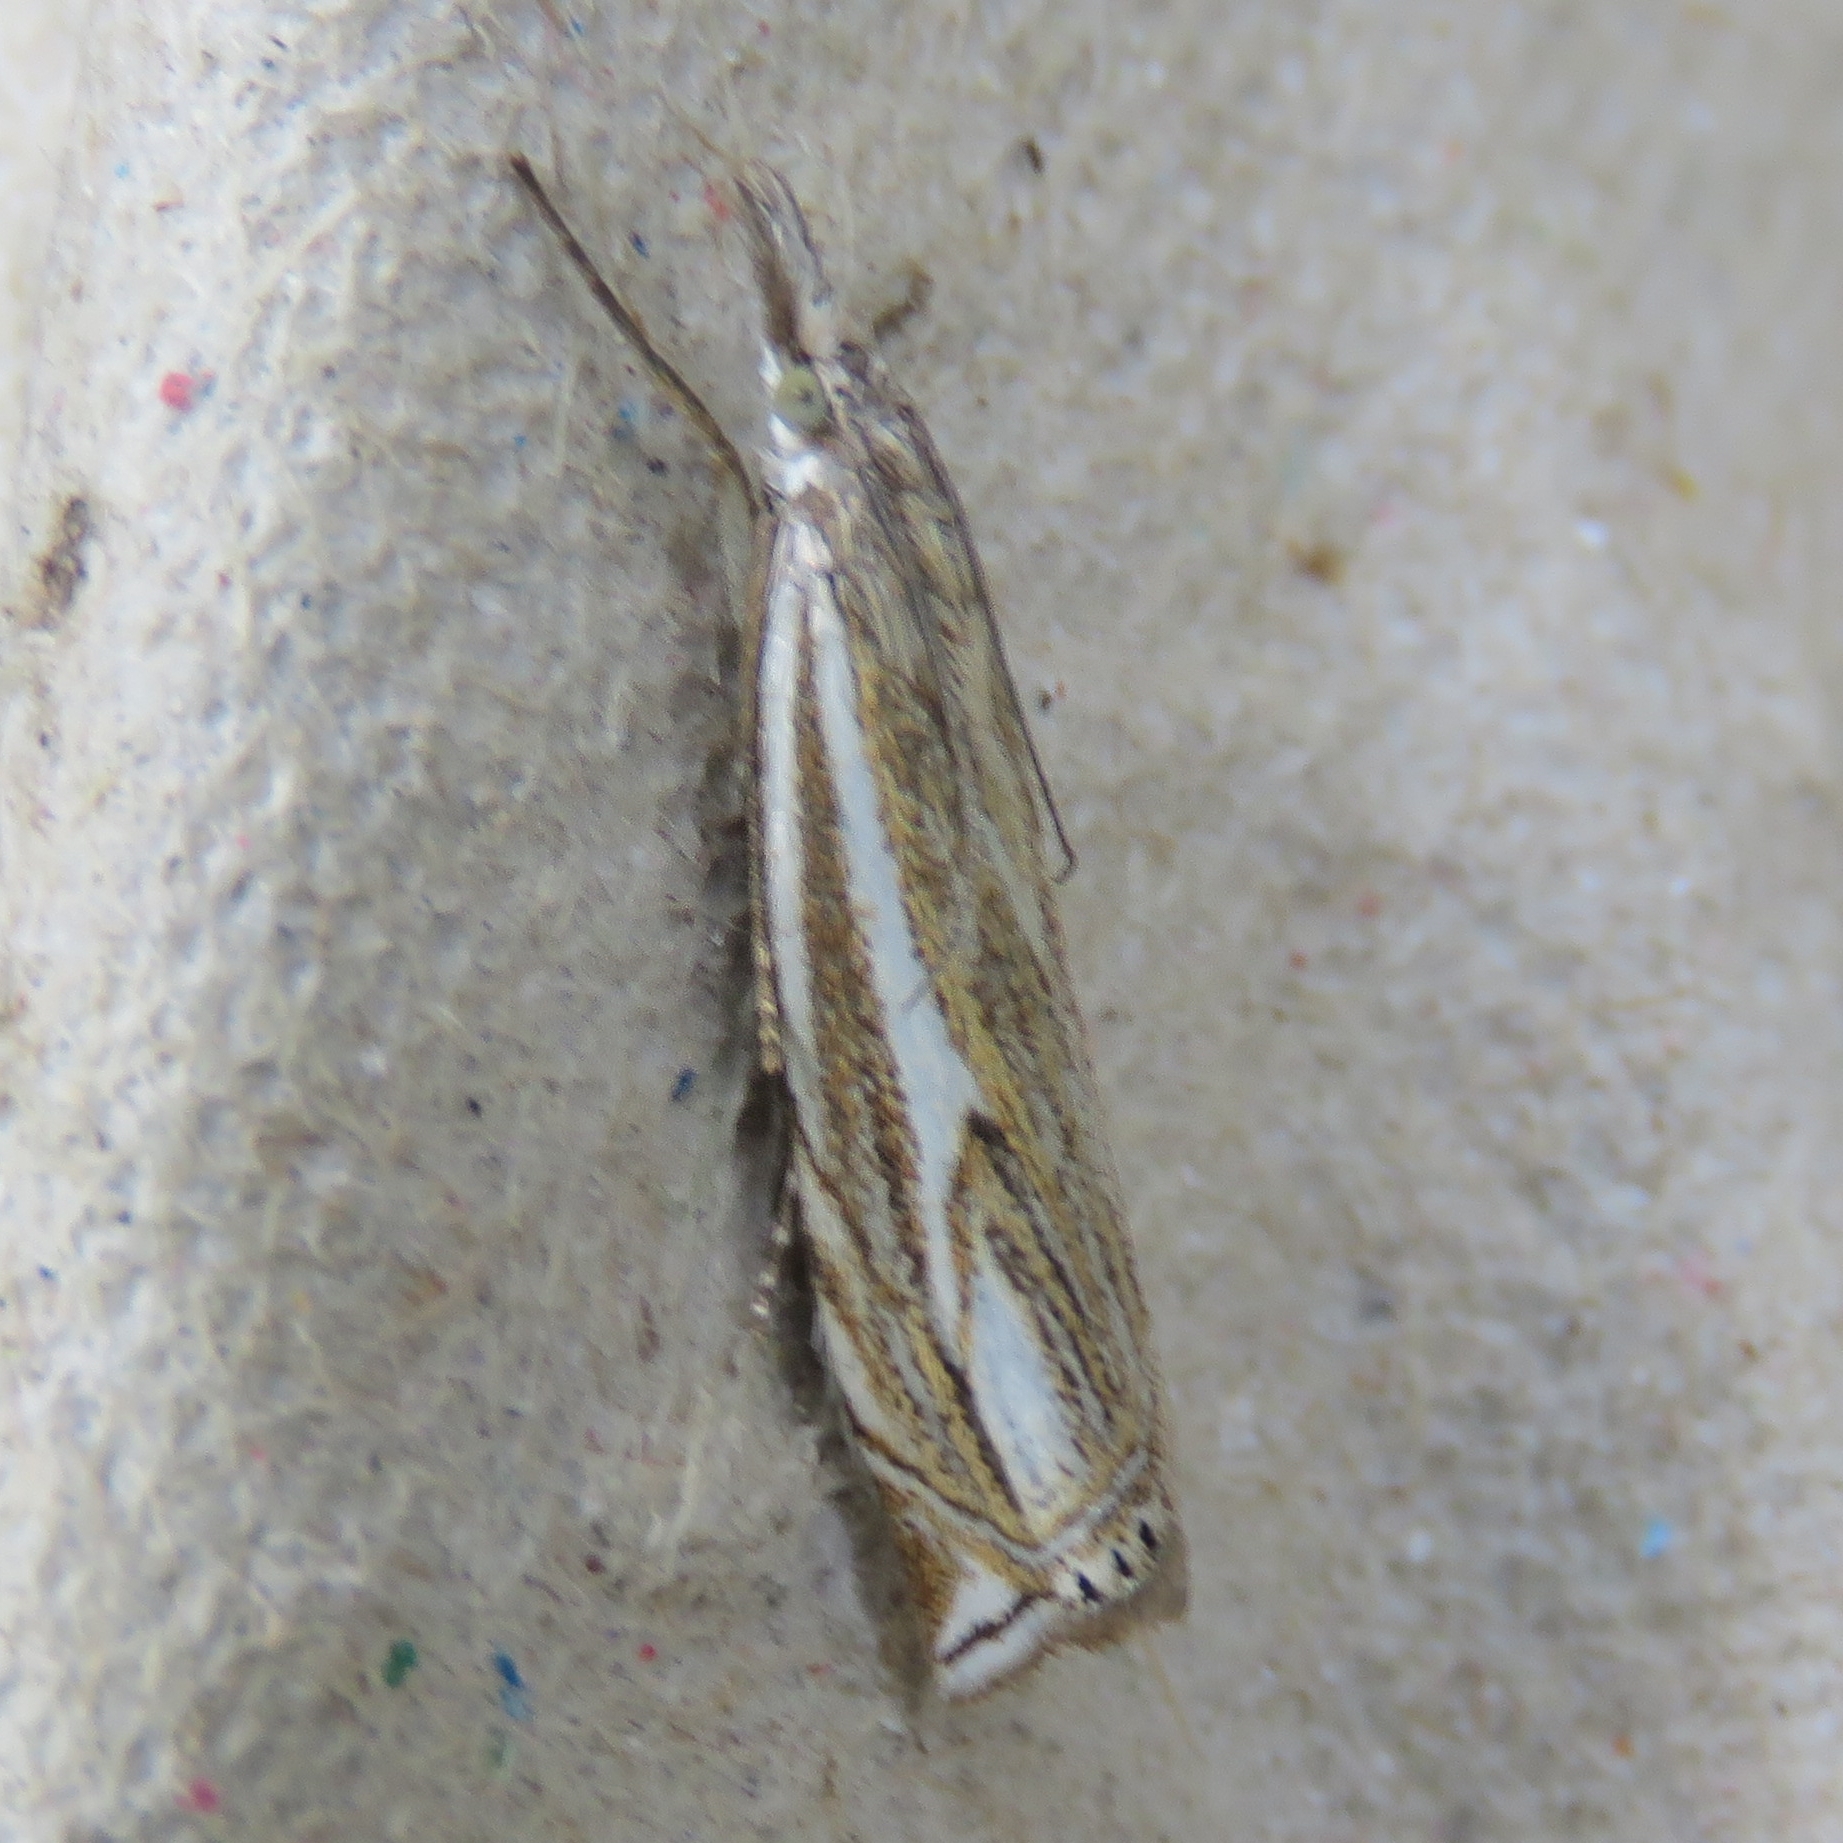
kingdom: Animalia
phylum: Arthropoda
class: Insecta
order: Lepidoptera
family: Crambidae
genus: Crambus
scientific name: Crambus nemorella
